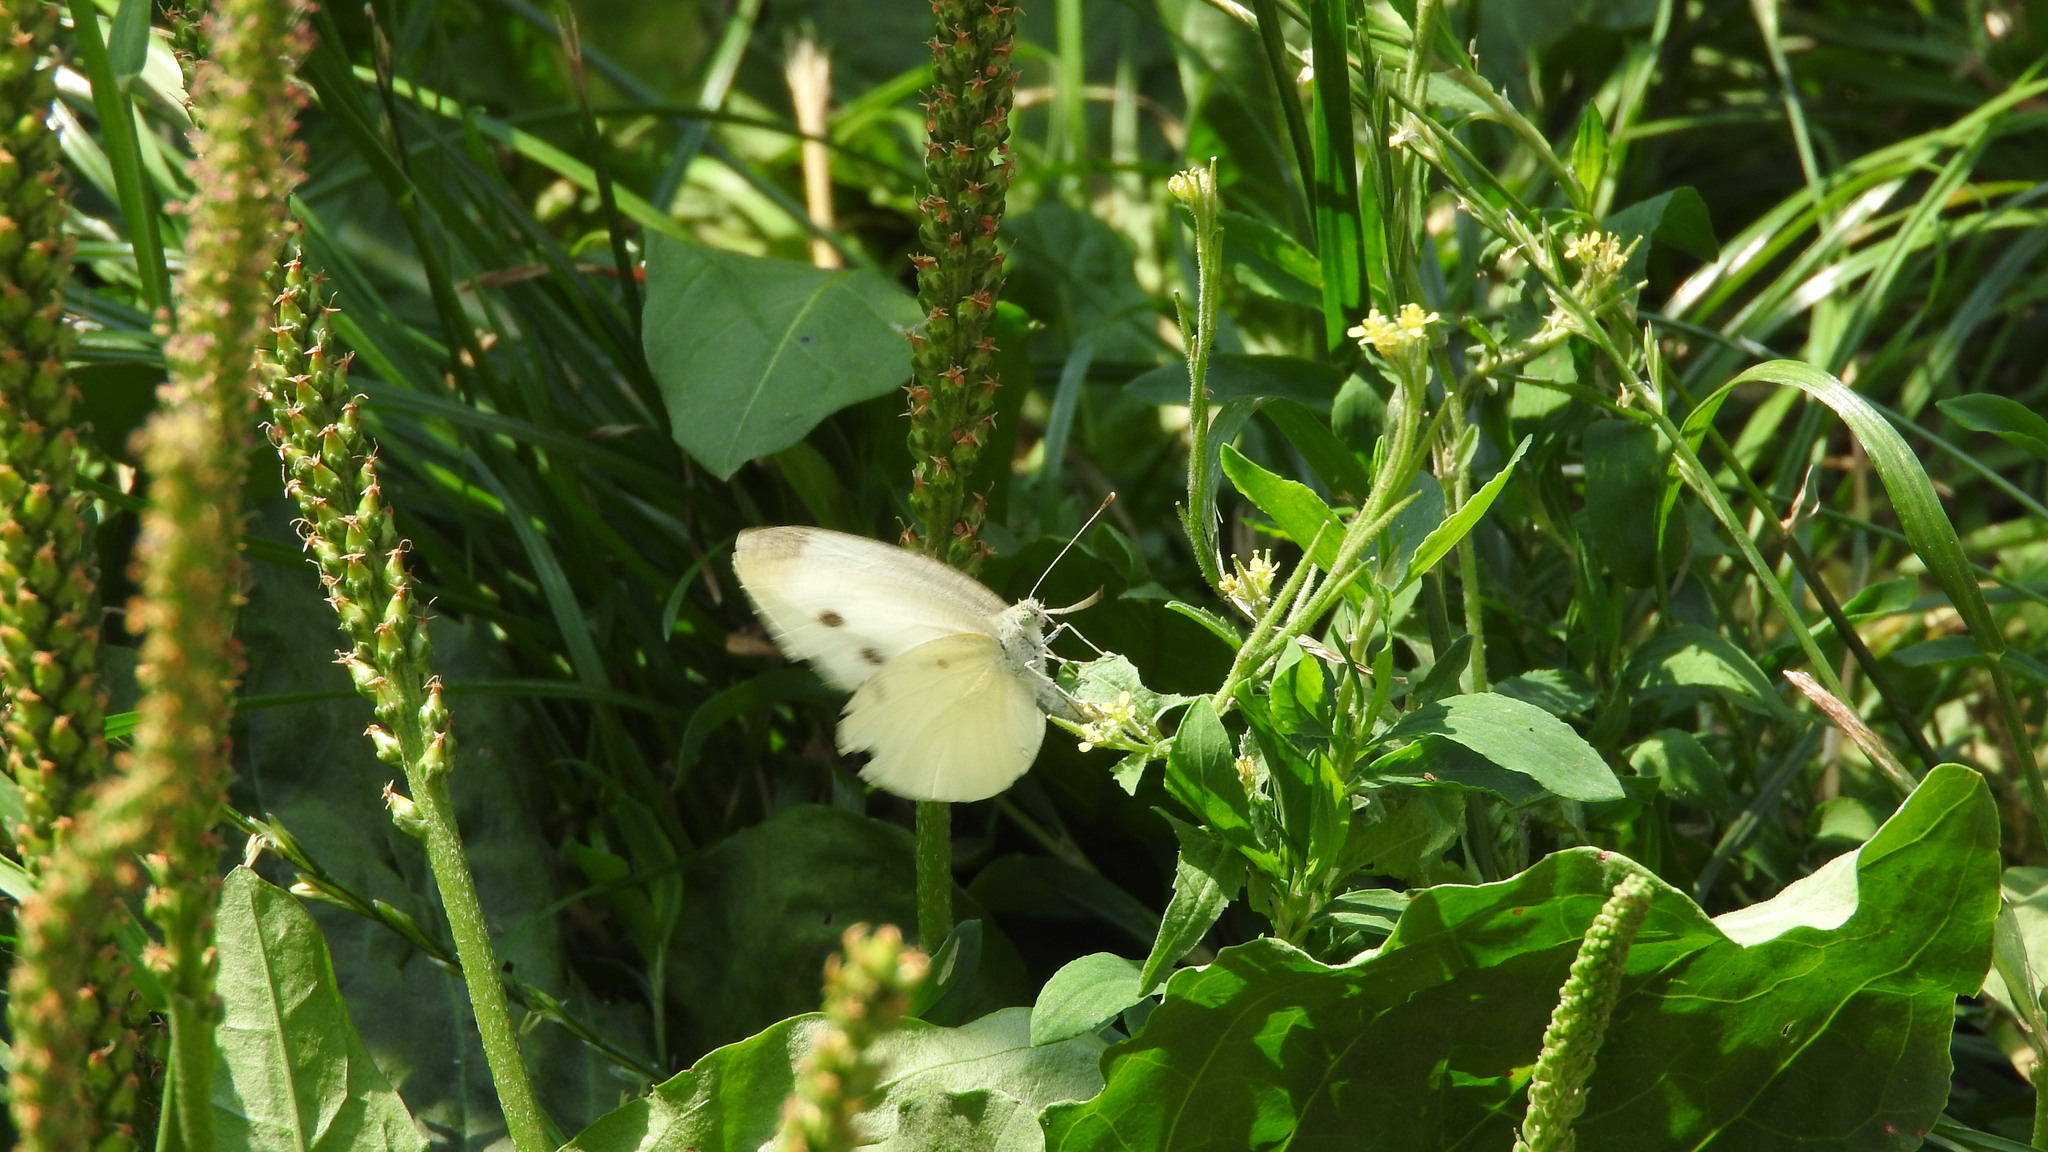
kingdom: Animalia
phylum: Arthropoda
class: Insecta
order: Lepidoptera
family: Pieridae
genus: Pieris
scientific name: Pieris rapae
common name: Small white
